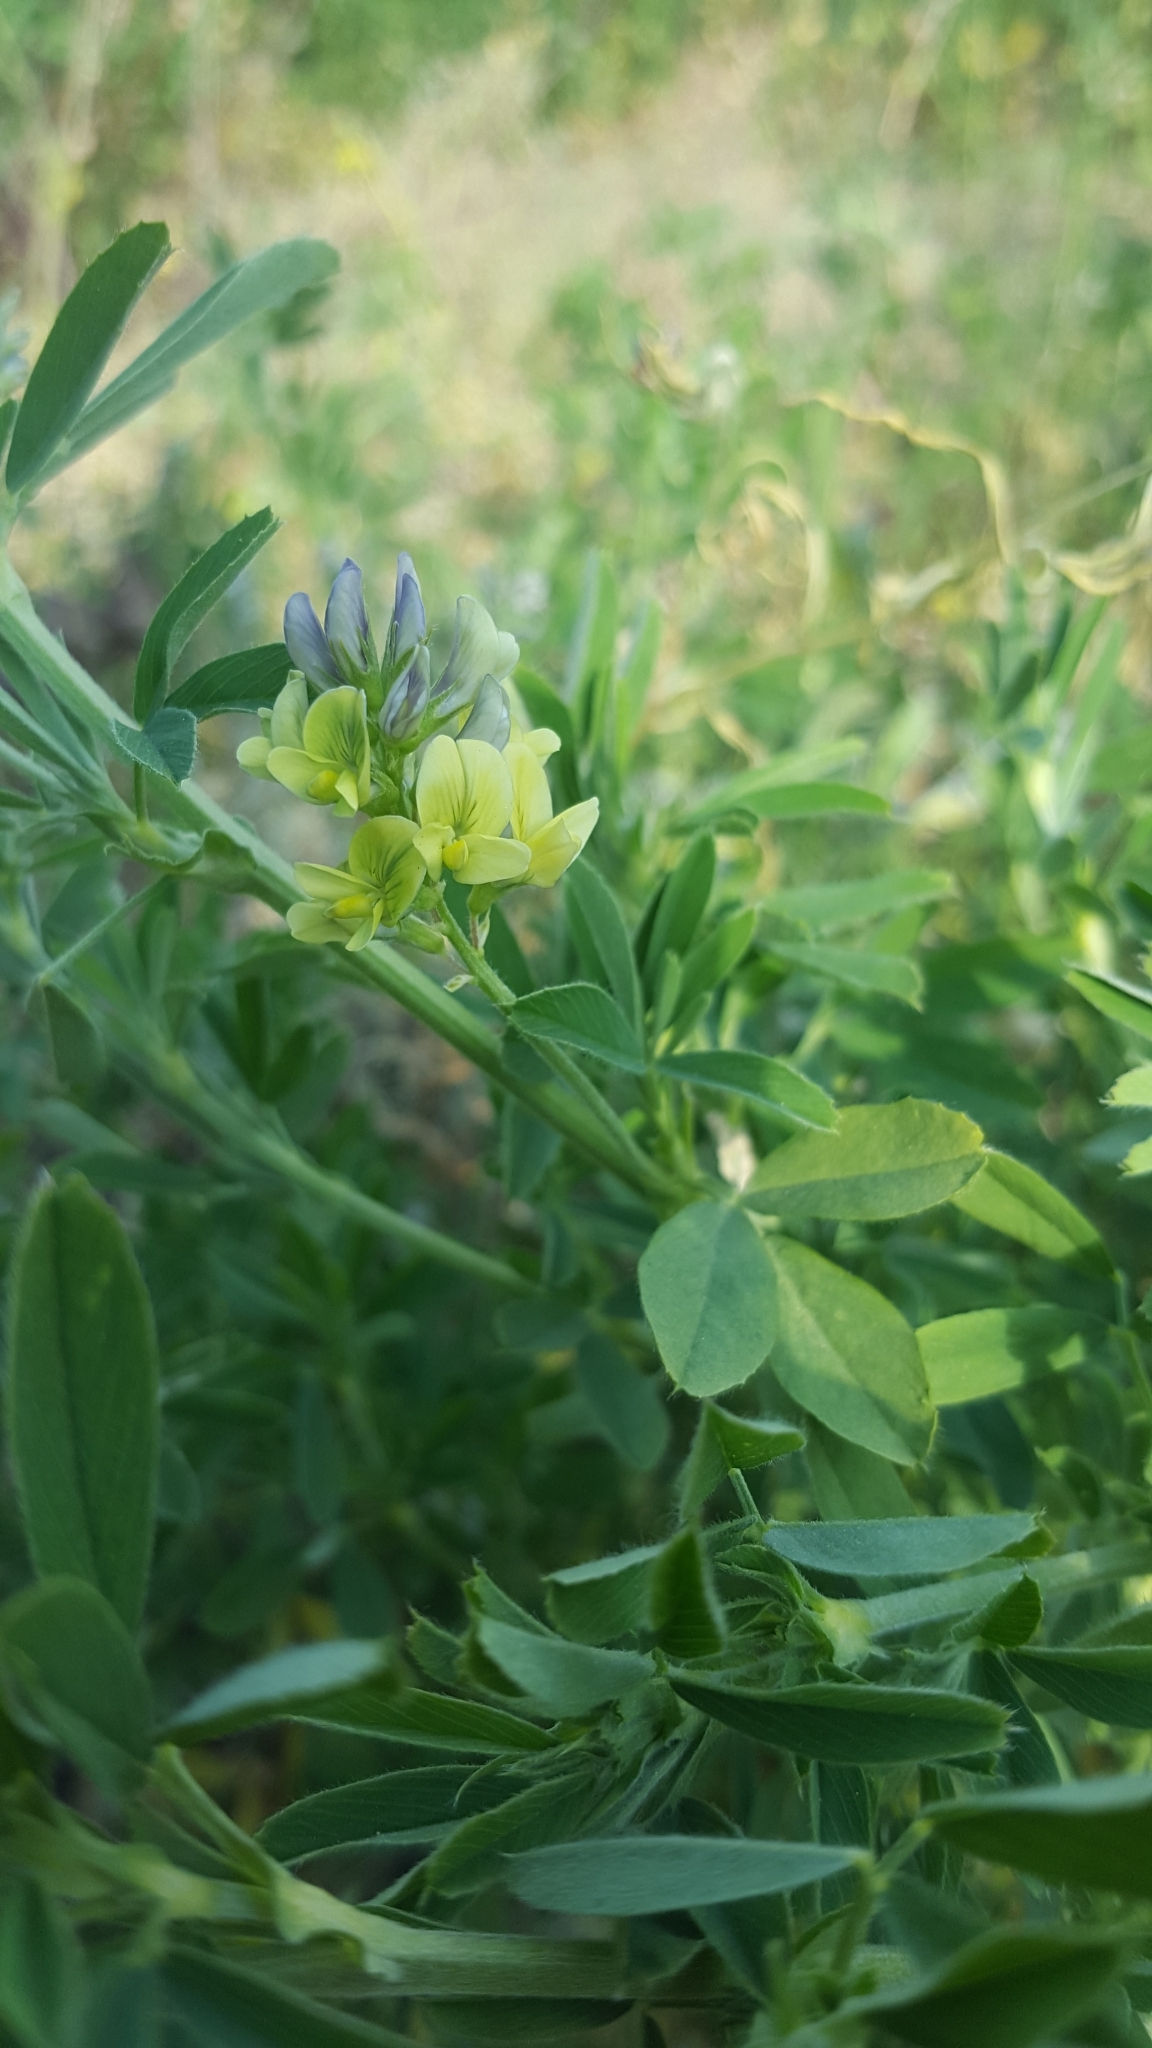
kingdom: Plantae
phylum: Tracheophyta
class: Magnoliopsida
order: Fabales
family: Fabaceae
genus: Medicago
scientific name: Medicago varia
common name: Sand lucerne
